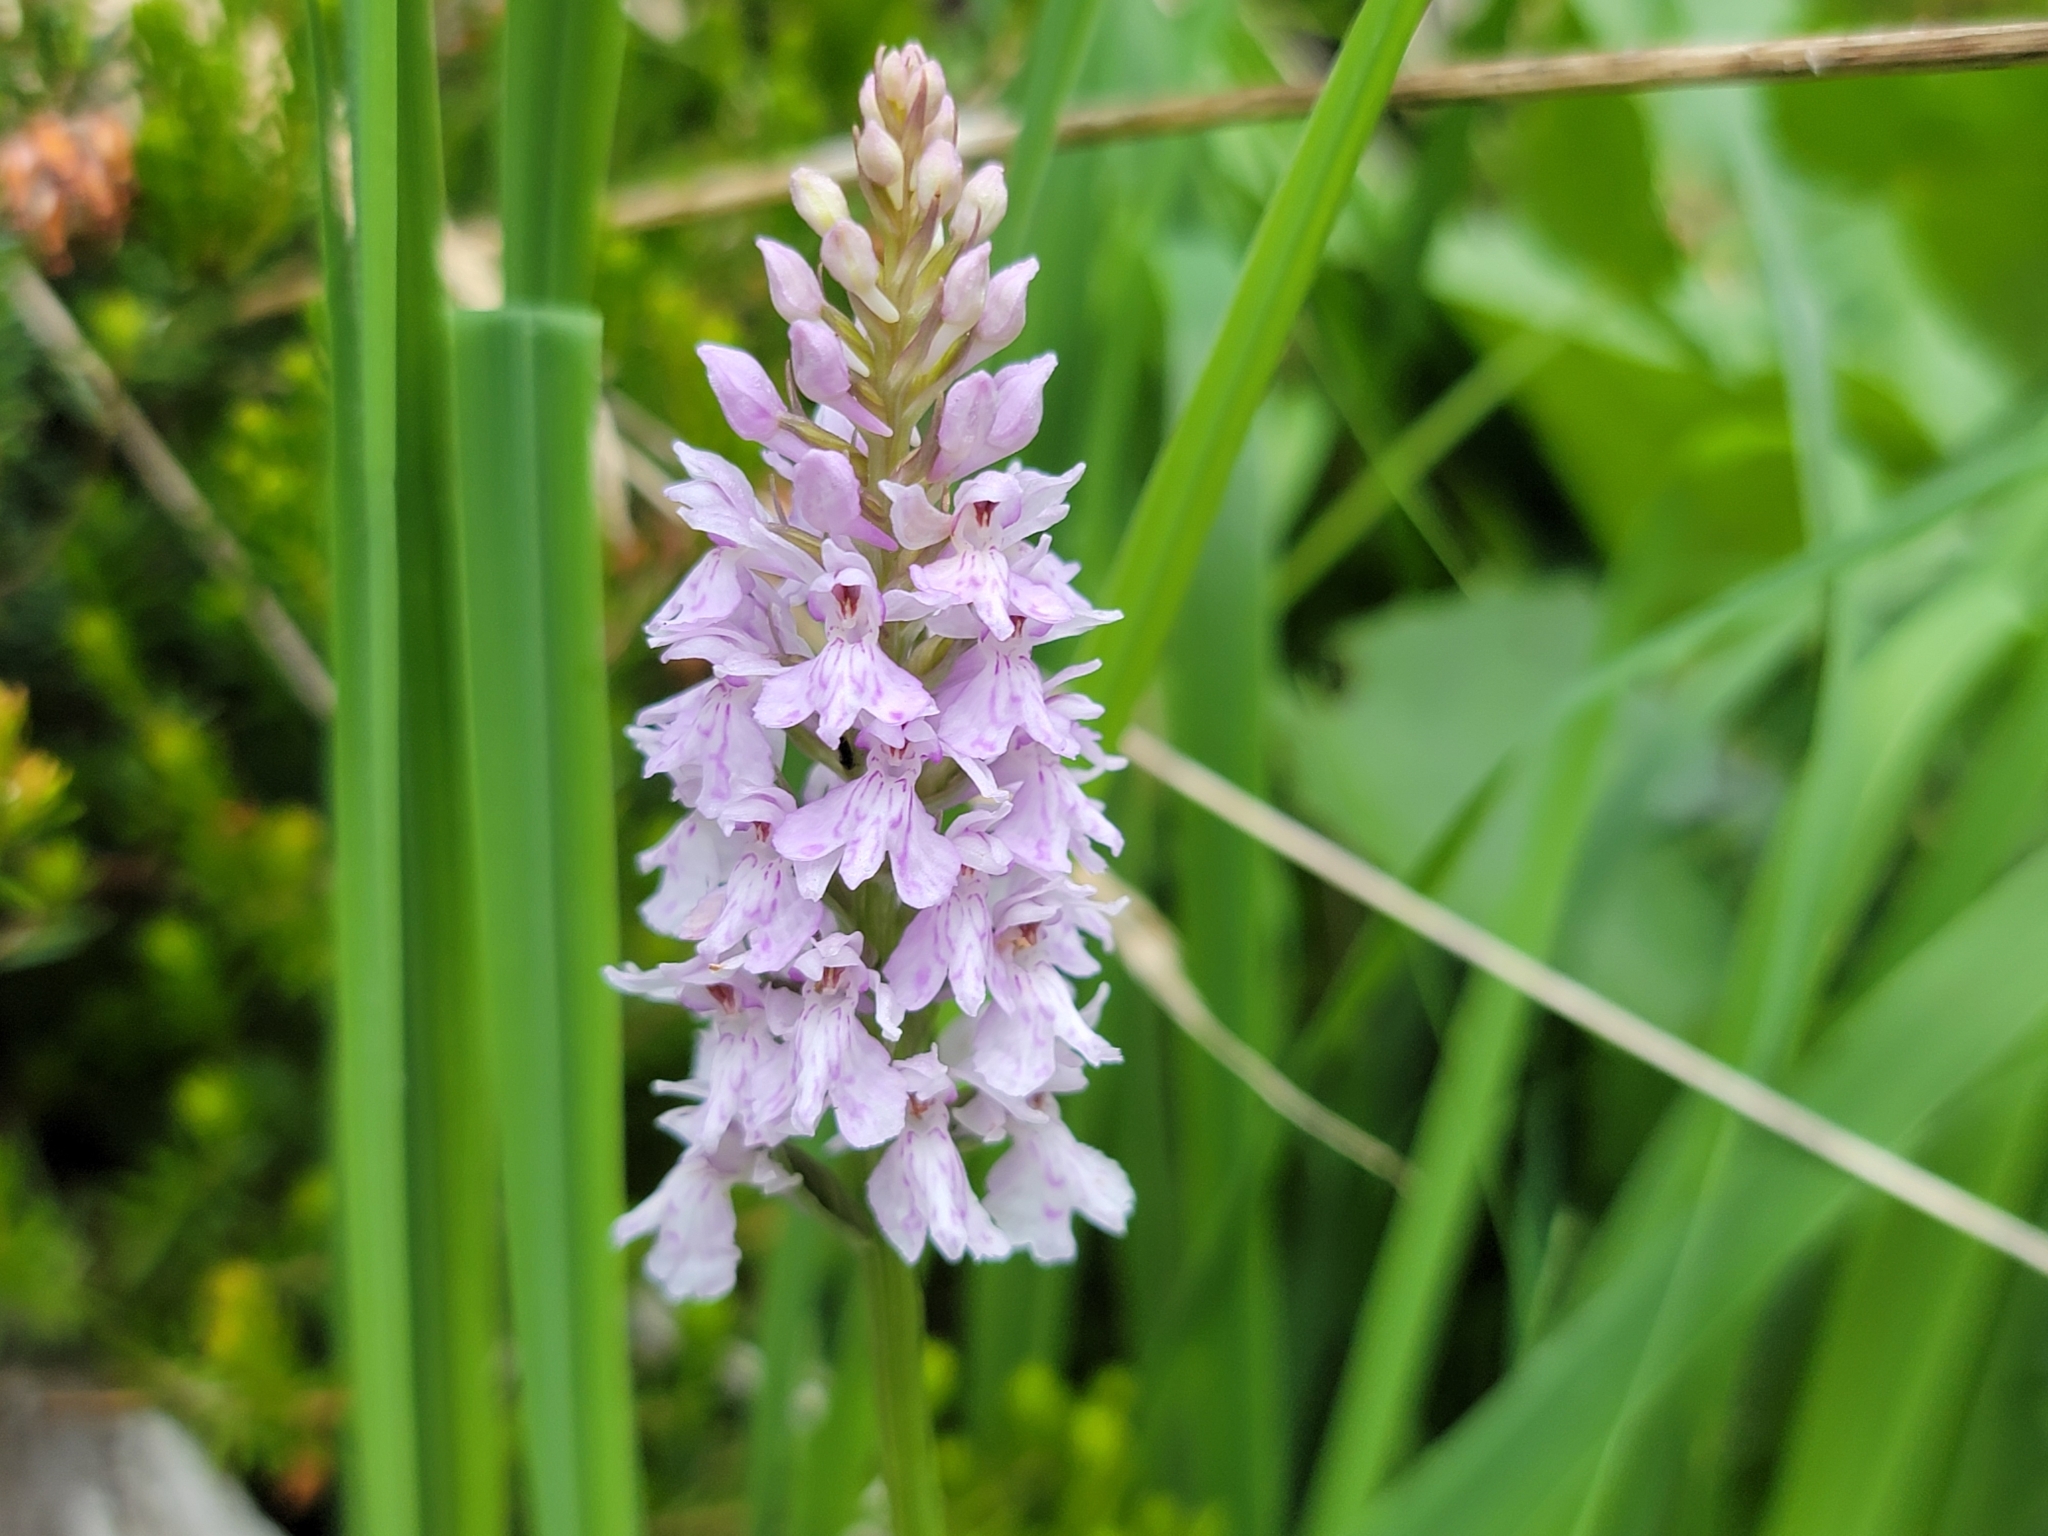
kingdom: Plantae
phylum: Tracheophyta
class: Liliopsida
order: Asparagales
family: Orchidaceae
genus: Dactylorhiza
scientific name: Dactylorhiza maculata
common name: Heath spotted-orchid
